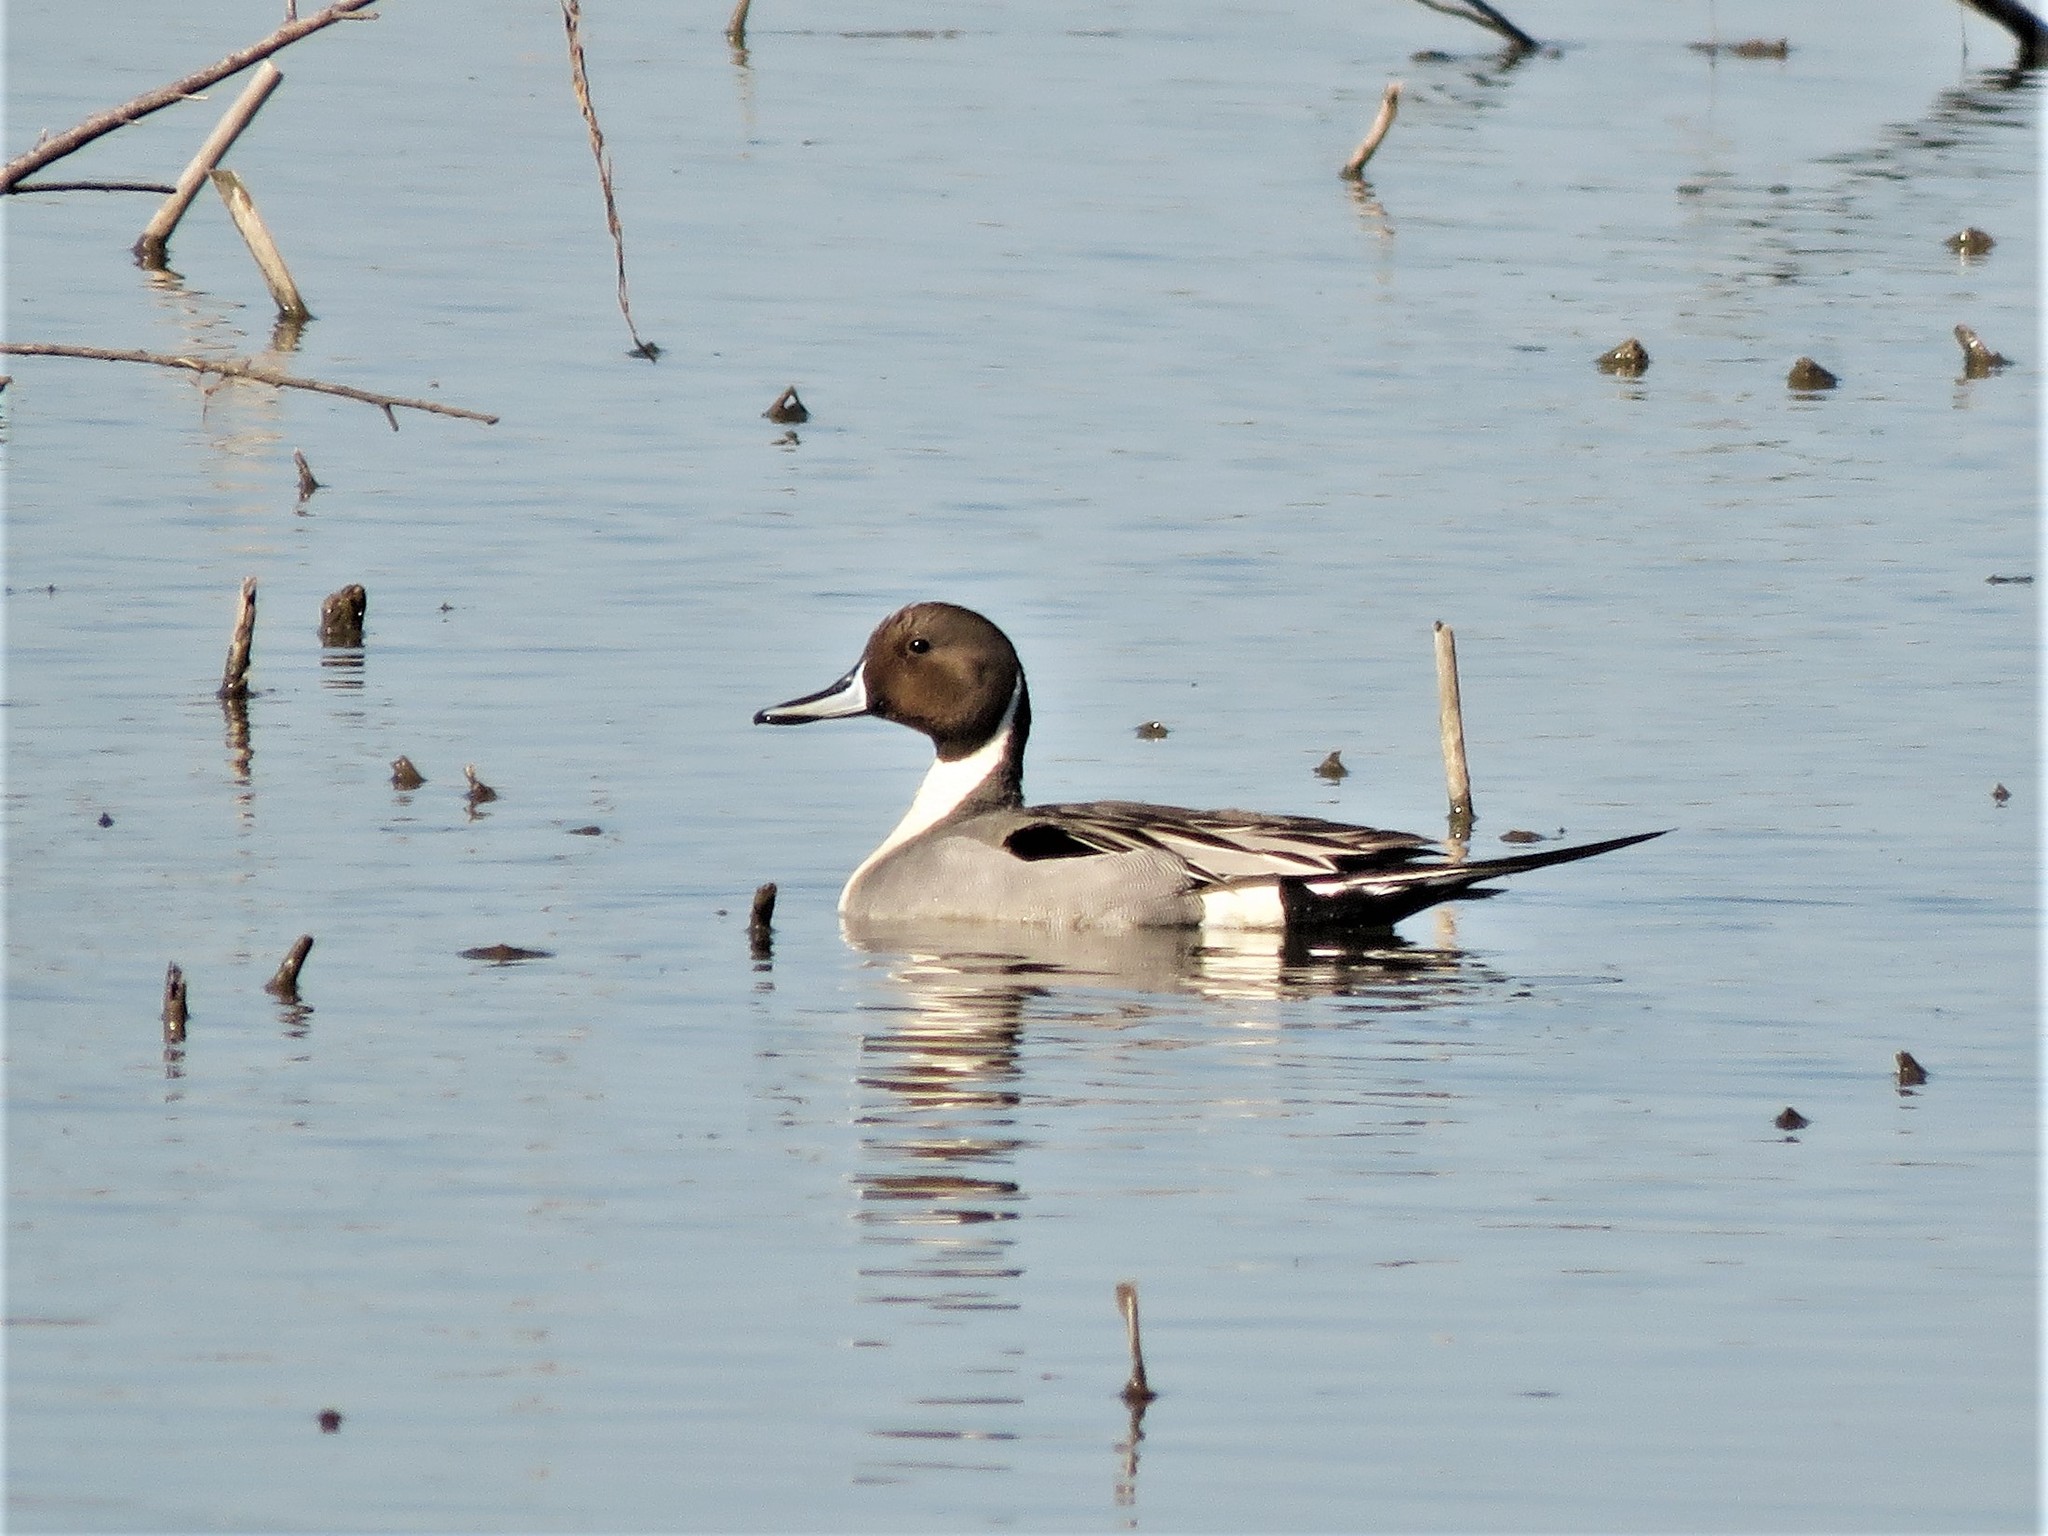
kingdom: Animalia
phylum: Chordata
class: Aves
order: Anseriformes
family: Anatidae
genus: Anas
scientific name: Anas acuta
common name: Northern pintail
